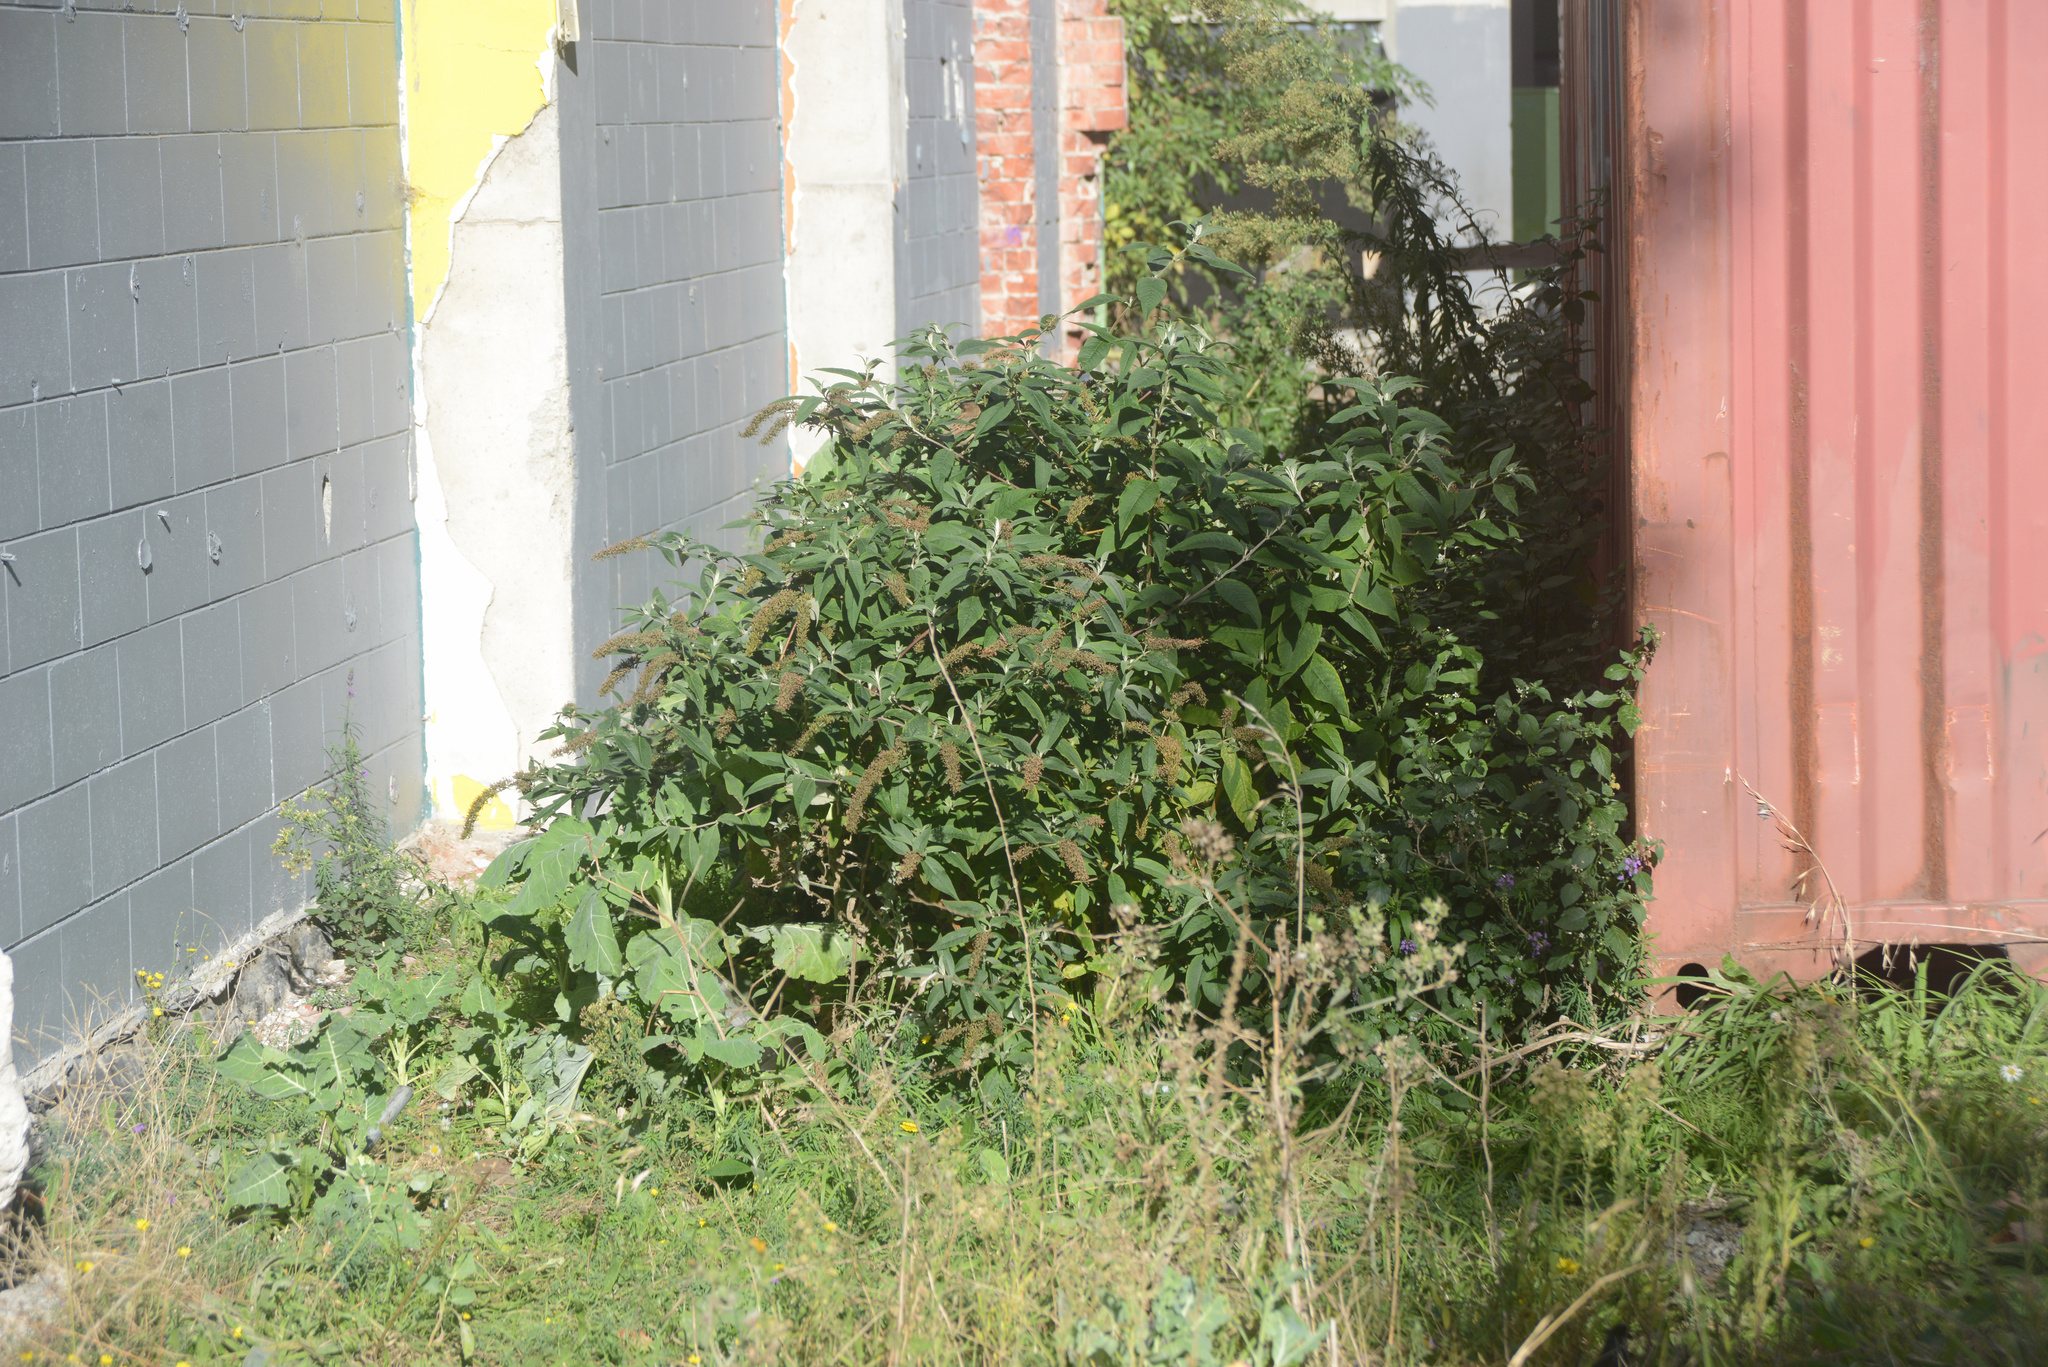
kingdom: Plantae
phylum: Tracheophyta
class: Magnoliopsida
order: Lamiales
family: Scrophulariaceae
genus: Buddleja
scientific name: Buddleja davidii
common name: Butterfly-bush
